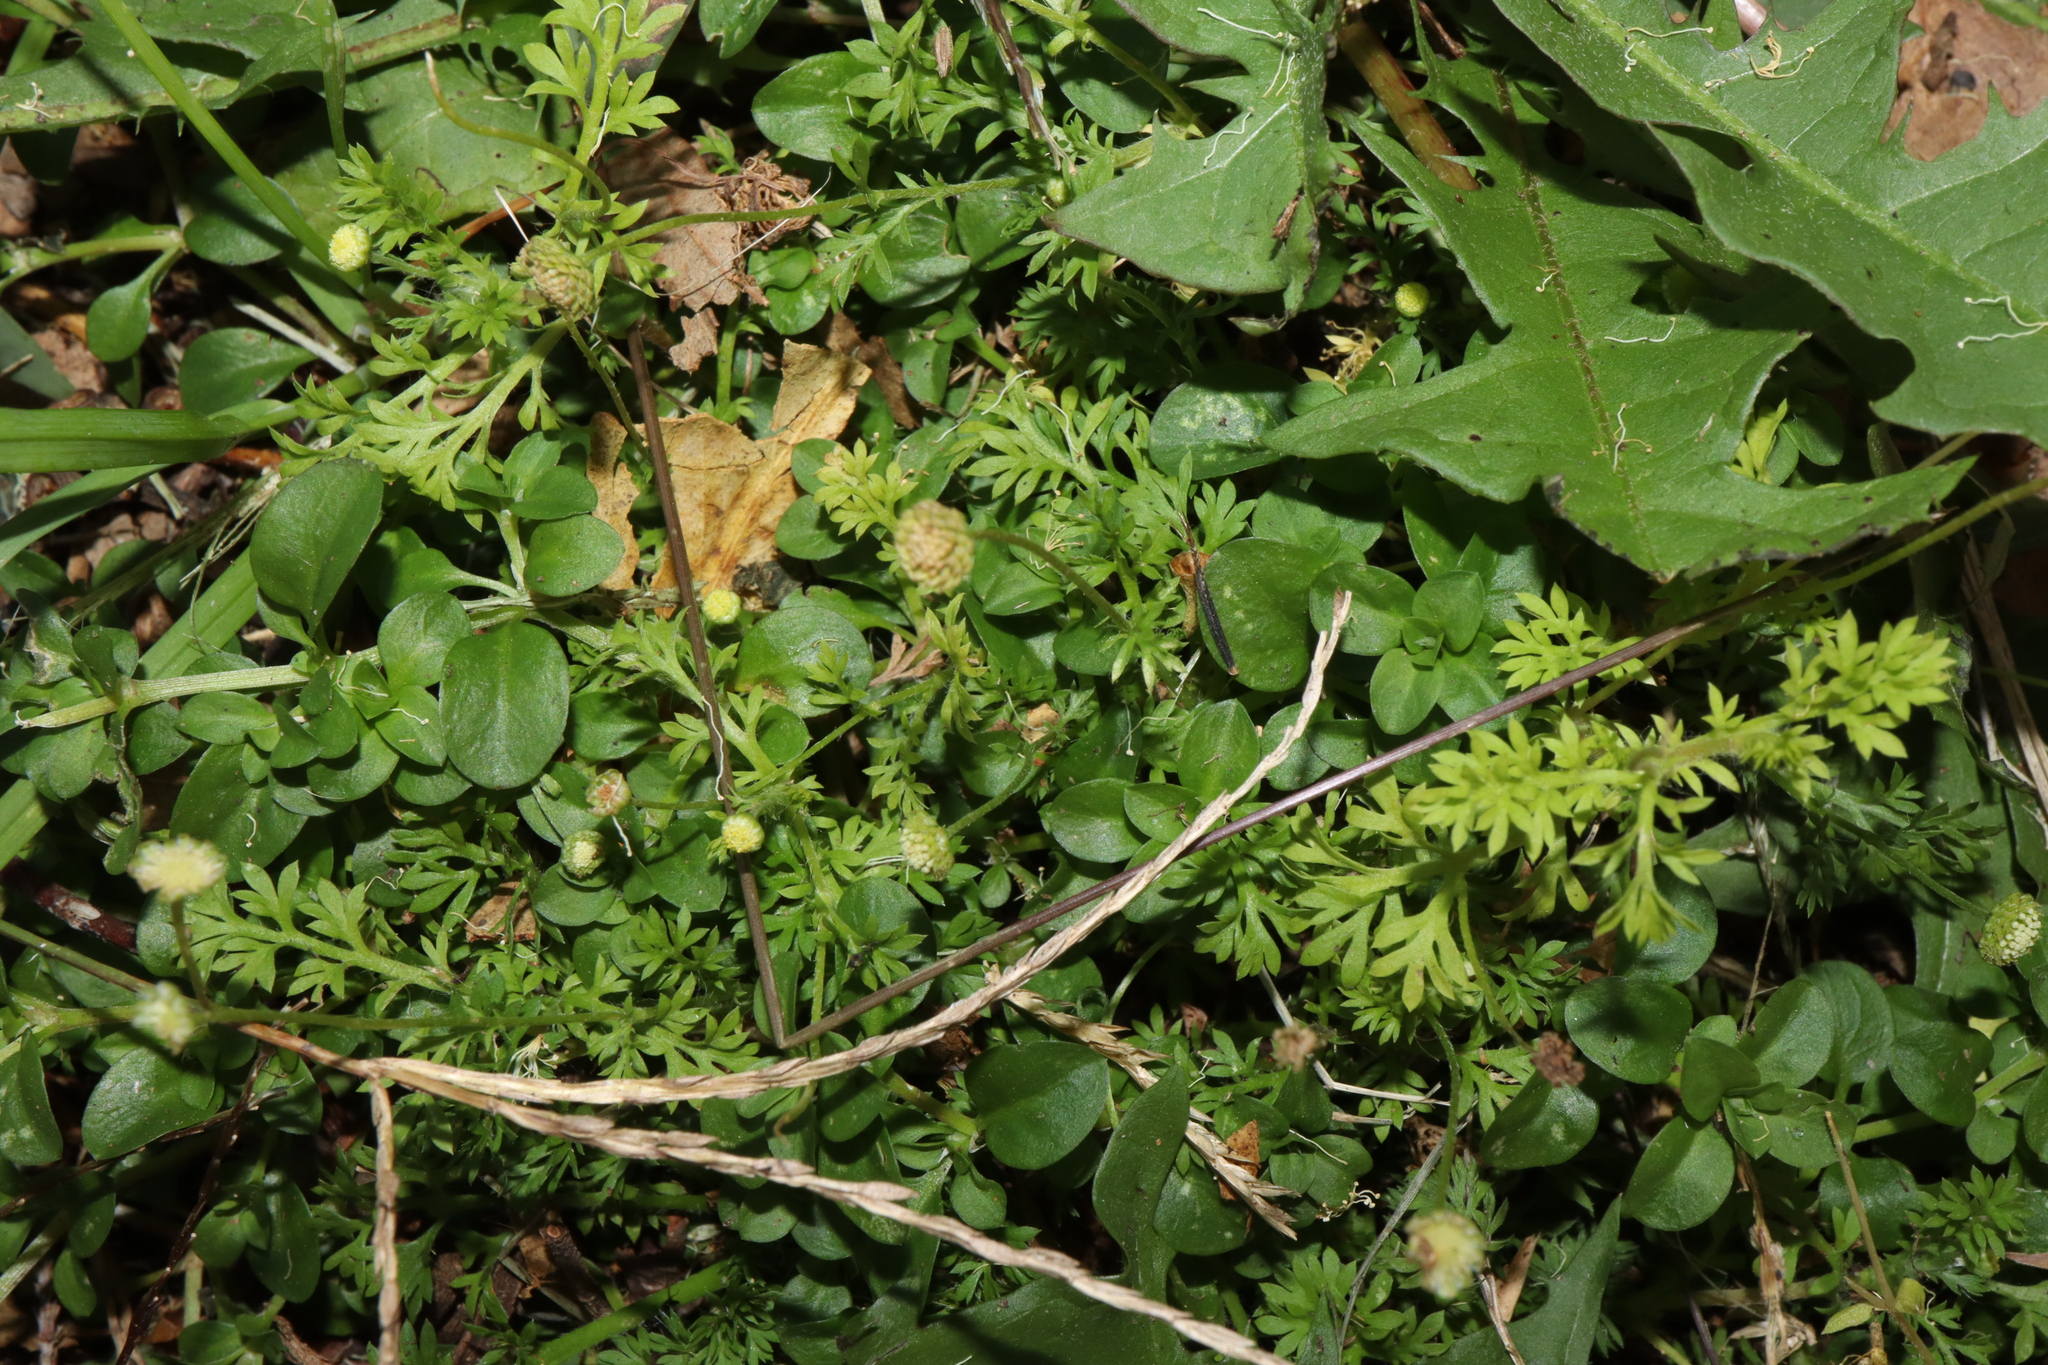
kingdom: Plantae
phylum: Tracheophyta
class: Magnoliopsida
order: Asterales
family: Asteraceae
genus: Cotula
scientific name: Cotula australis
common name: Australian waterbuttons
